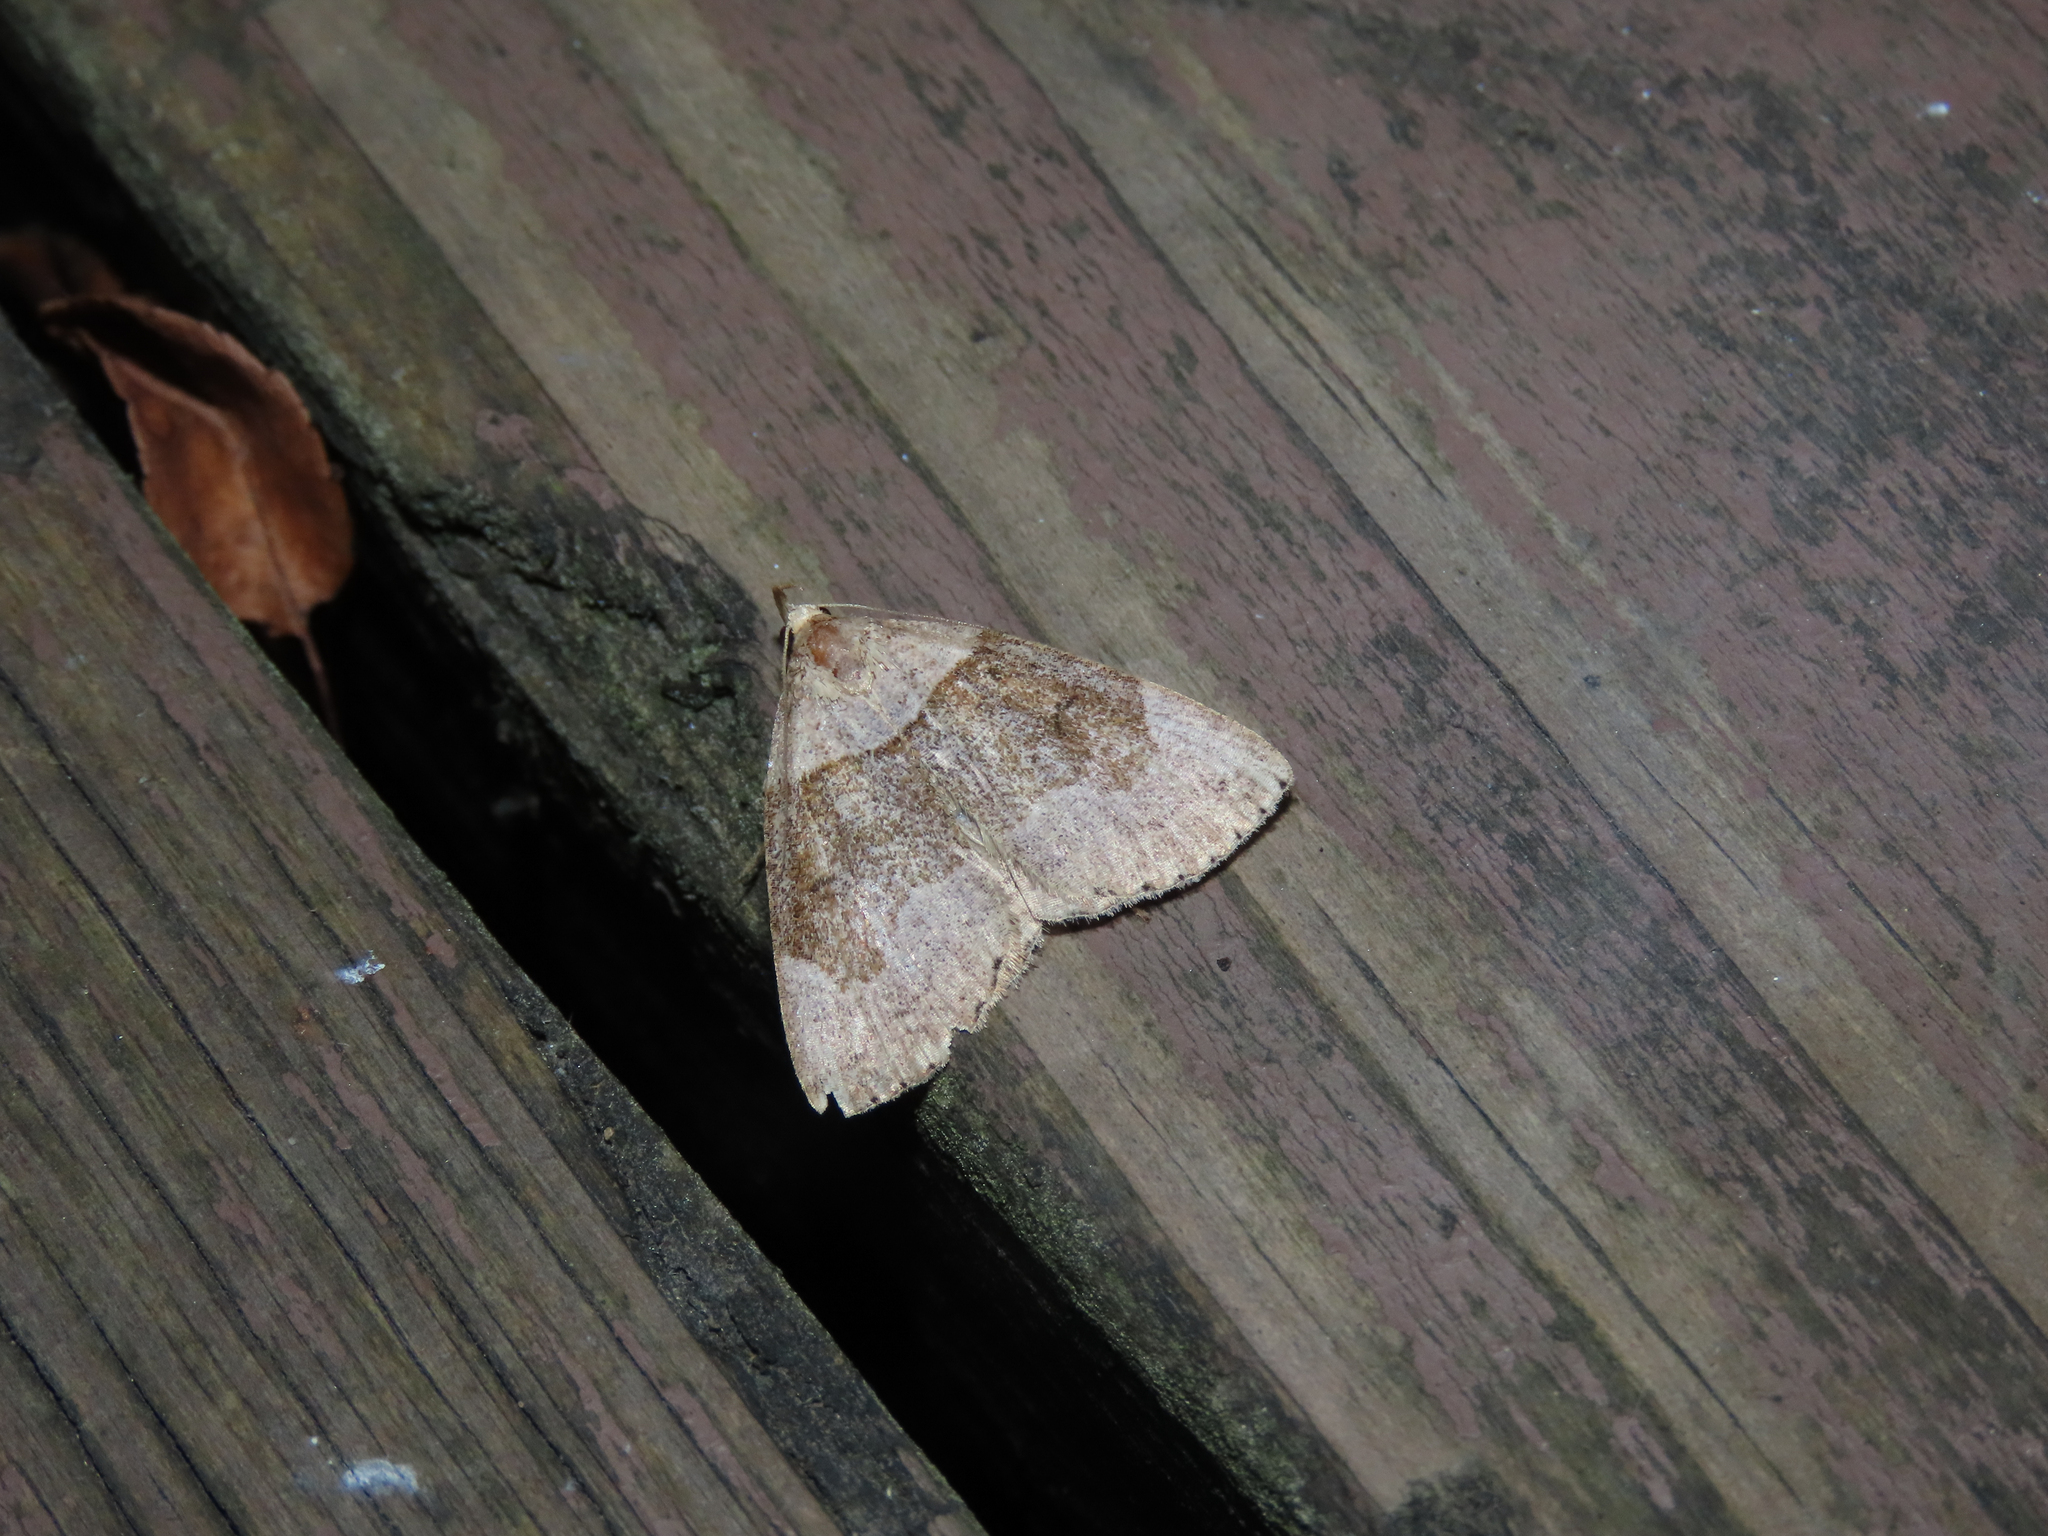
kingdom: Animalia
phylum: Arthropoda
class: Insecta
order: Lepidoptera
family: Erebidae
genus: Zanclognatha
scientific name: Zanclognatha laevigata
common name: Variable fan-foot
